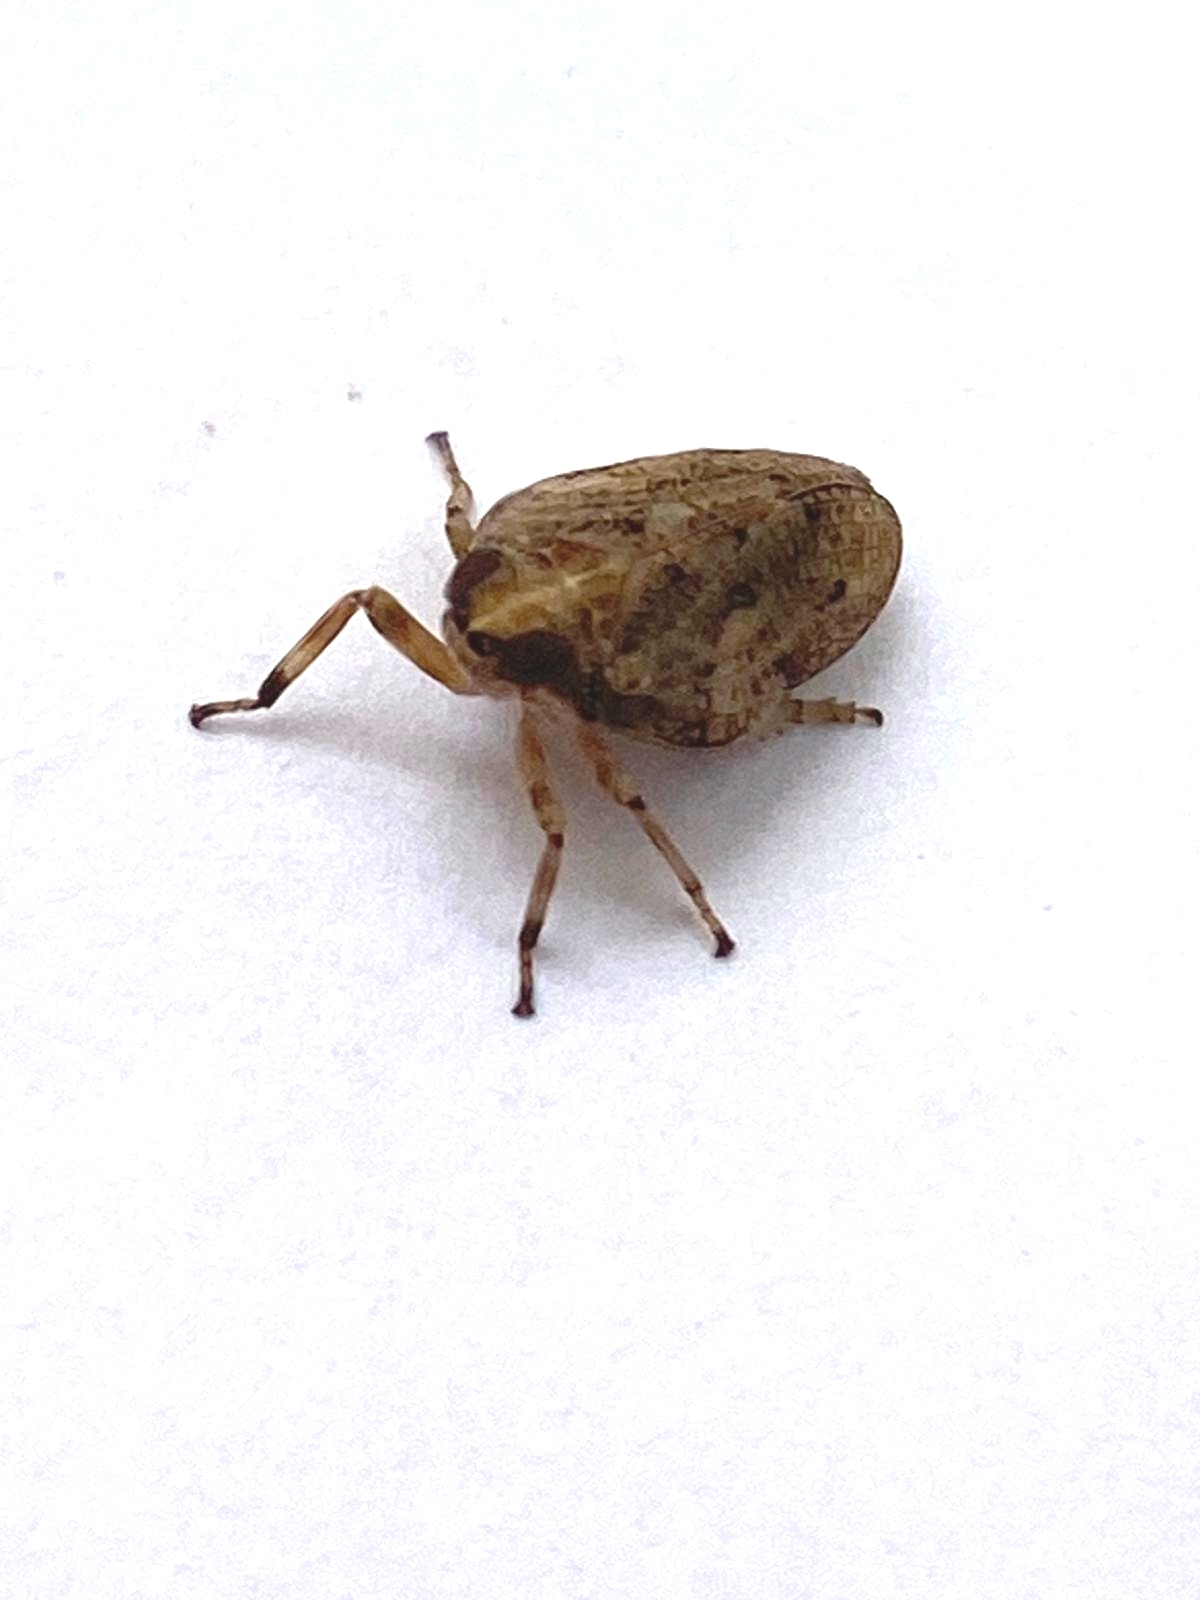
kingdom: Animalia
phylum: Arthropoda
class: Insecta
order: Hemiptera
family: Issidae
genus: Issus
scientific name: Issus coleoptratus
